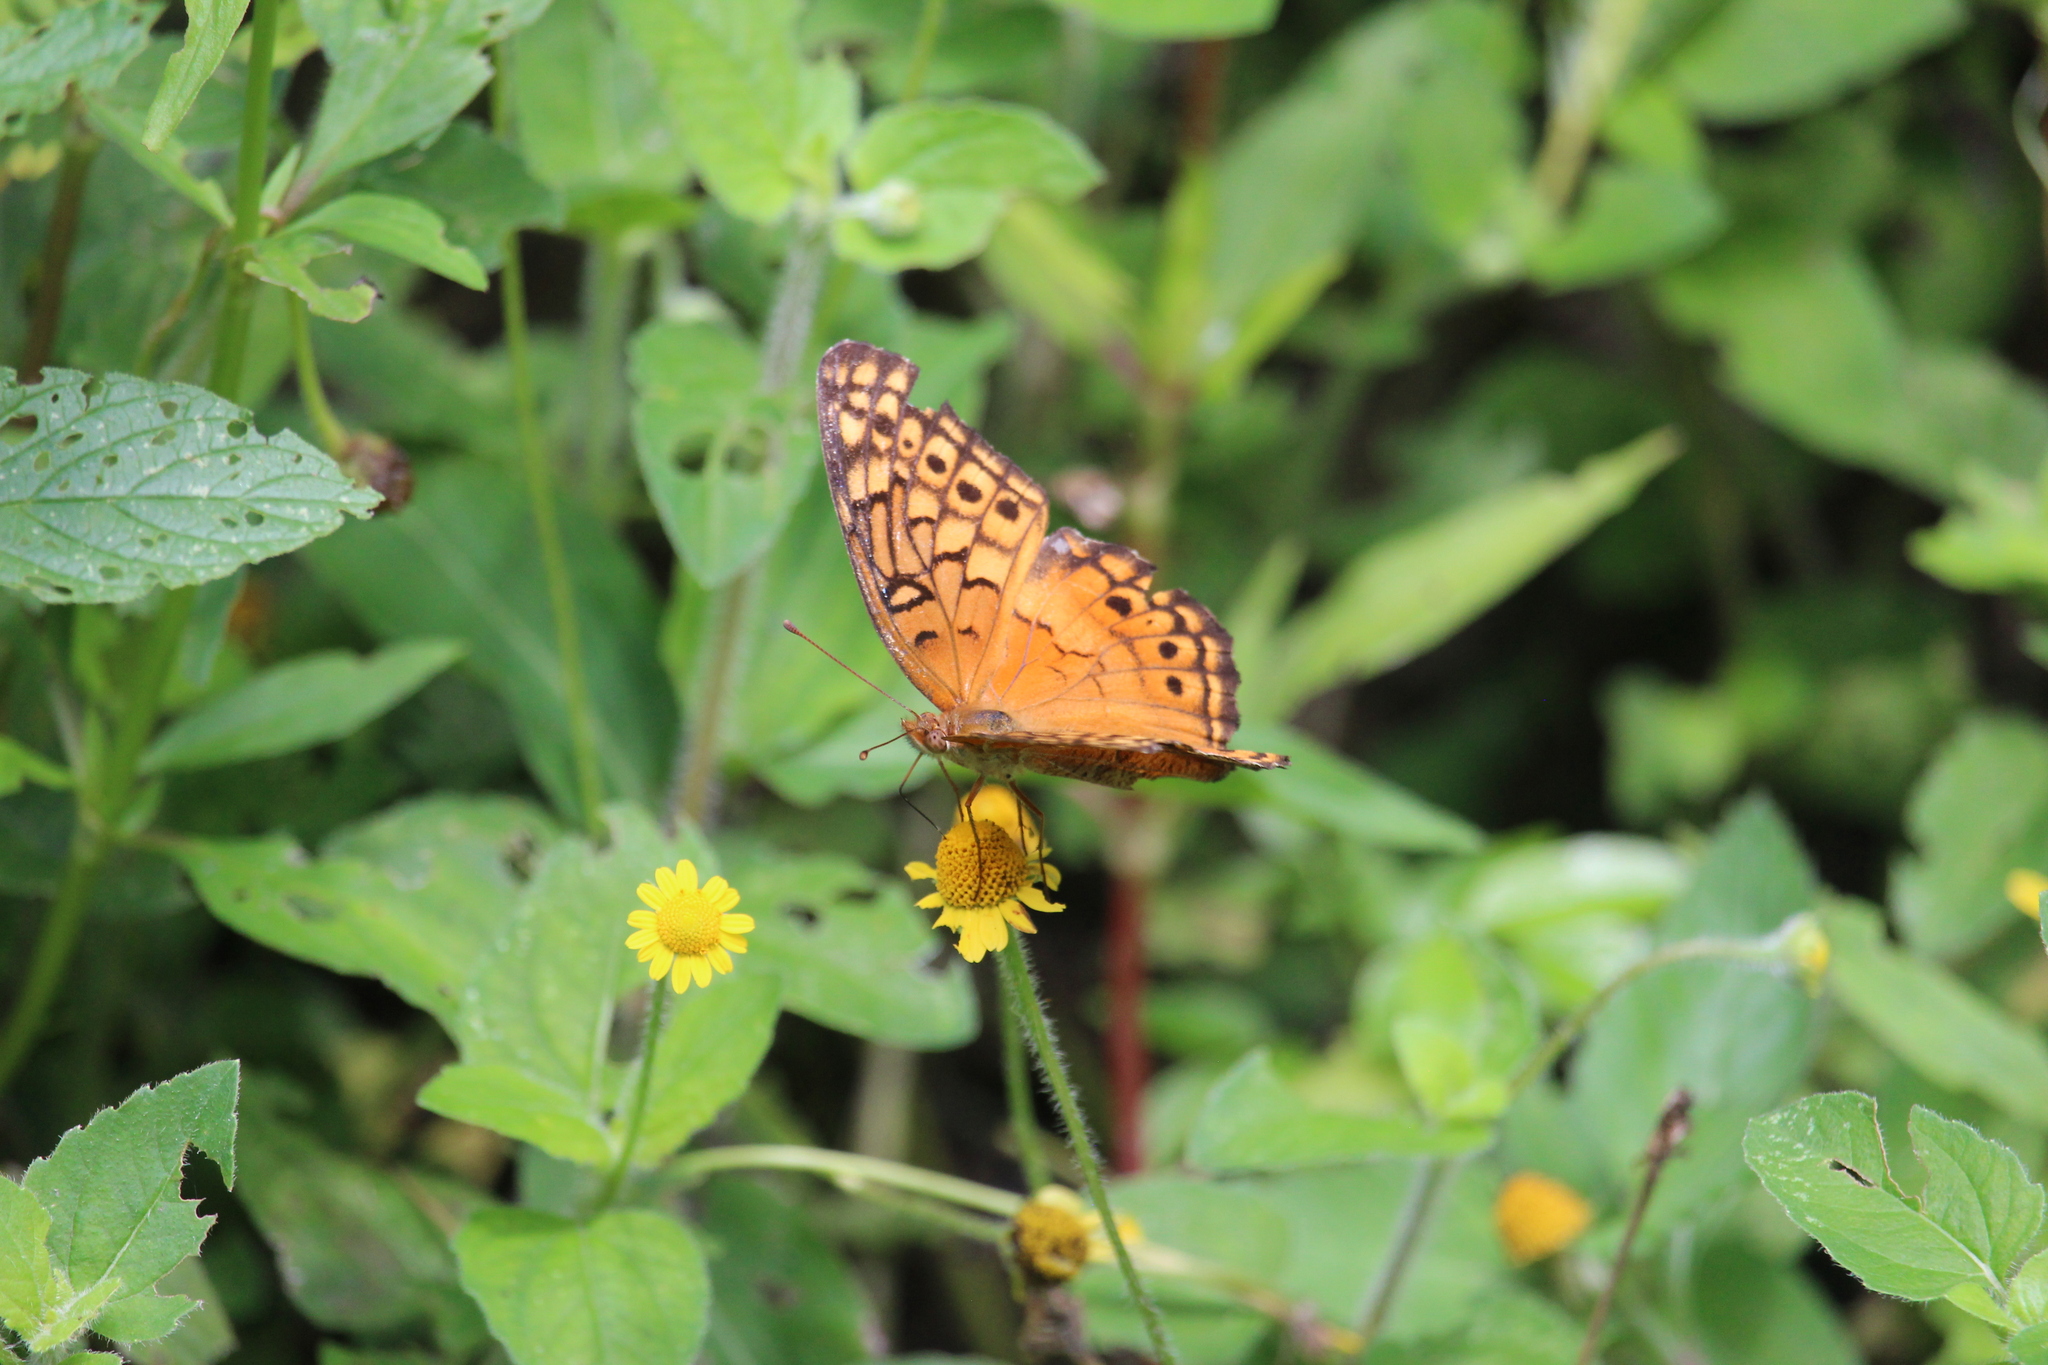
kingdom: Animalia
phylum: Arthropoda
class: Insecta
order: Lepidoptera
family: Nymphalidae
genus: Euptoieta
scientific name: Euptoieta claudia
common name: Variegated fritillary
